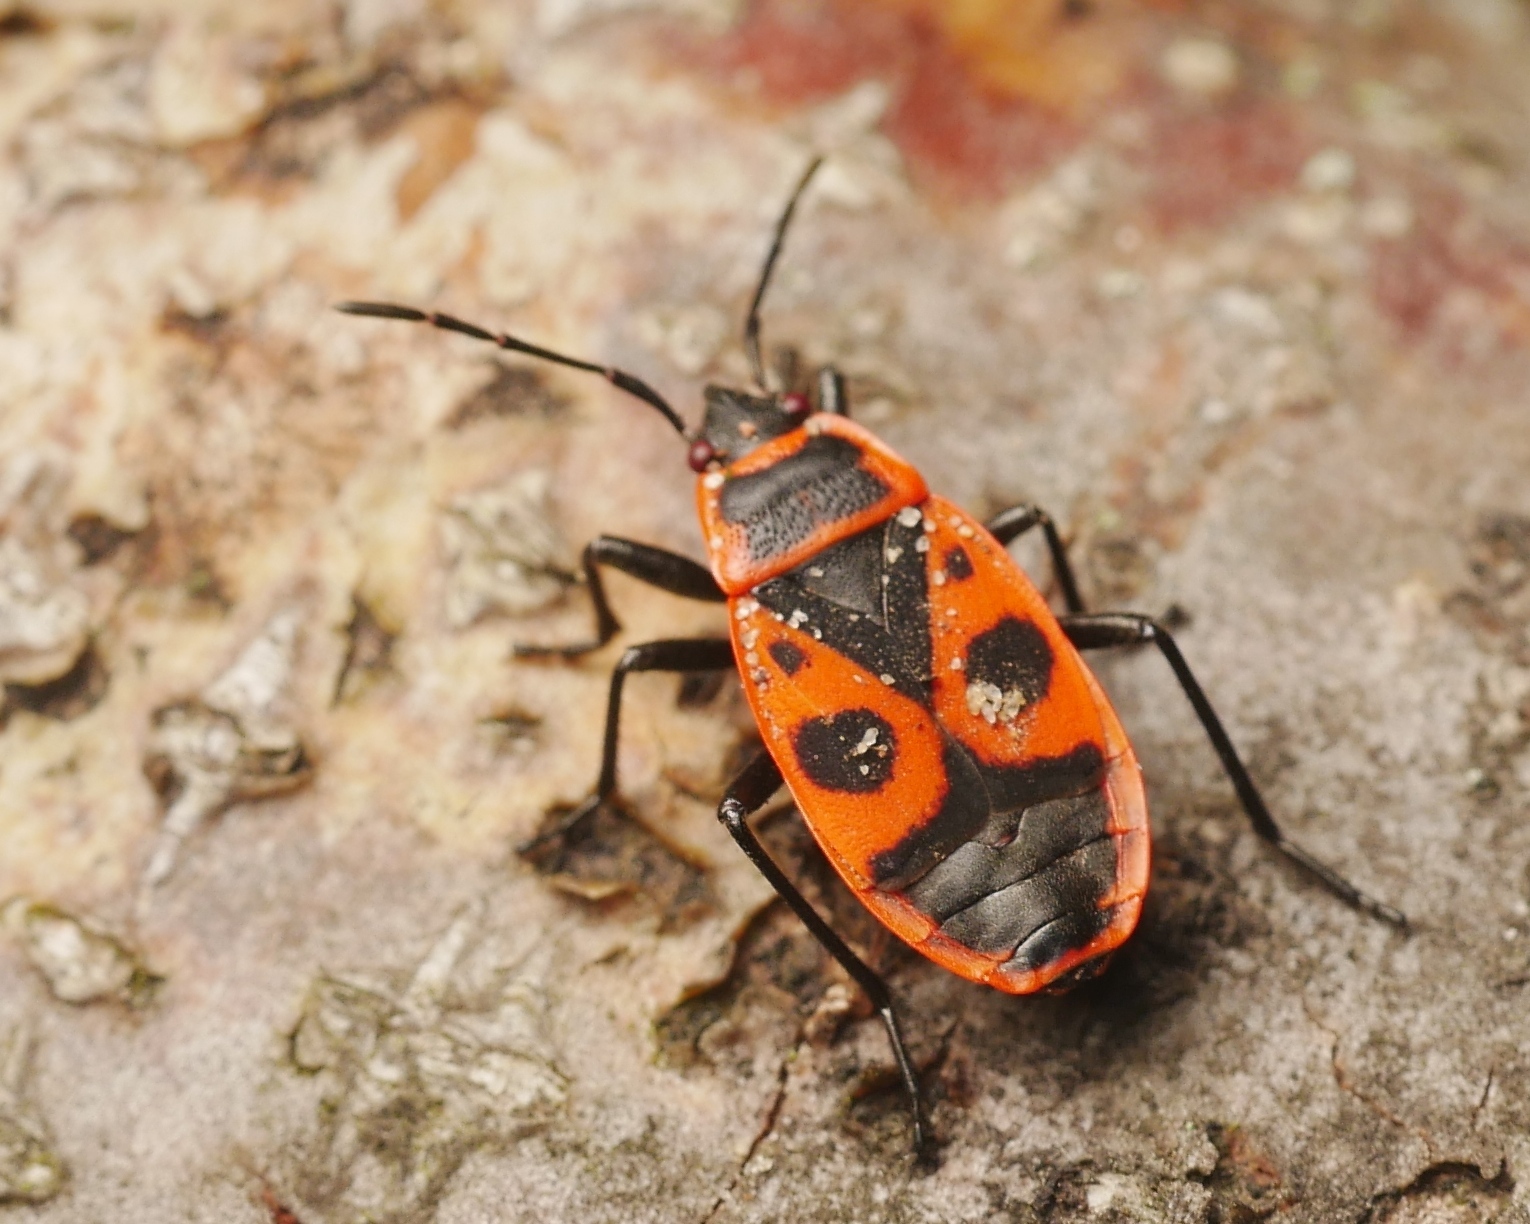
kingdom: Animalia
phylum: Arthropoda
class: Insecta
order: Hemiptera
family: Pyrrhocoridae
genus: Pyrrhocoris
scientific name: Pyrrhocoris apterus
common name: Firebug
